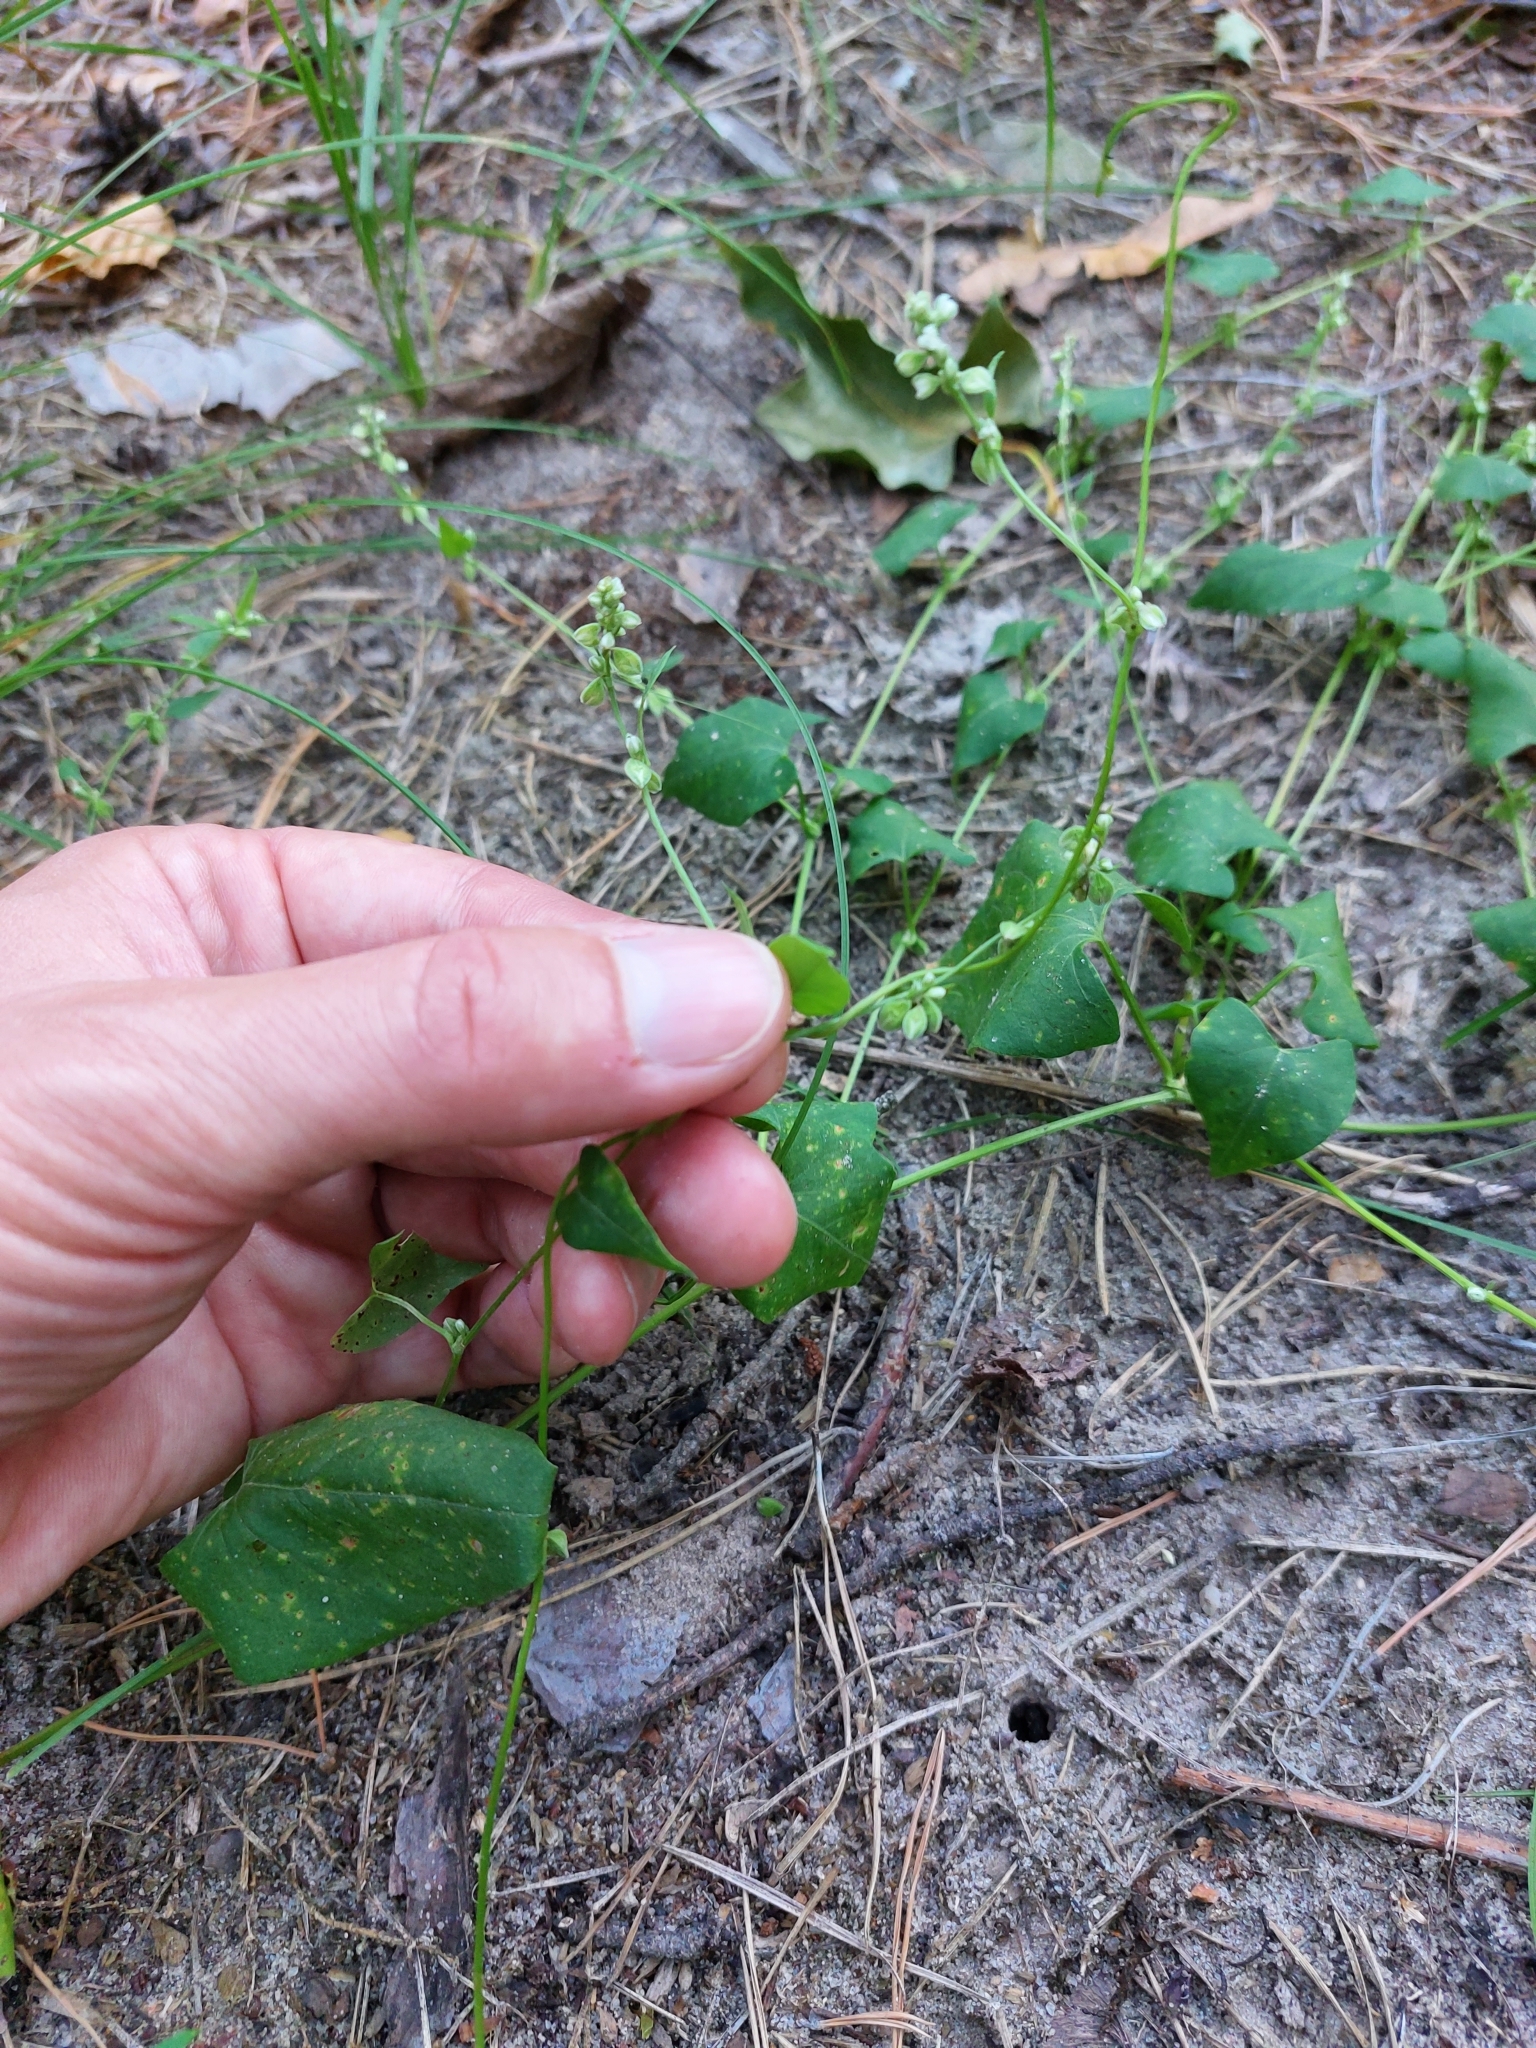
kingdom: Plantae
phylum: Tracheophyta
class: Magnoliopsida
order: Caryophyllales
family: Polygonaceae
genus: Fallopia
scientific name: Fallopia convolvulus
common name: Black bindweed
